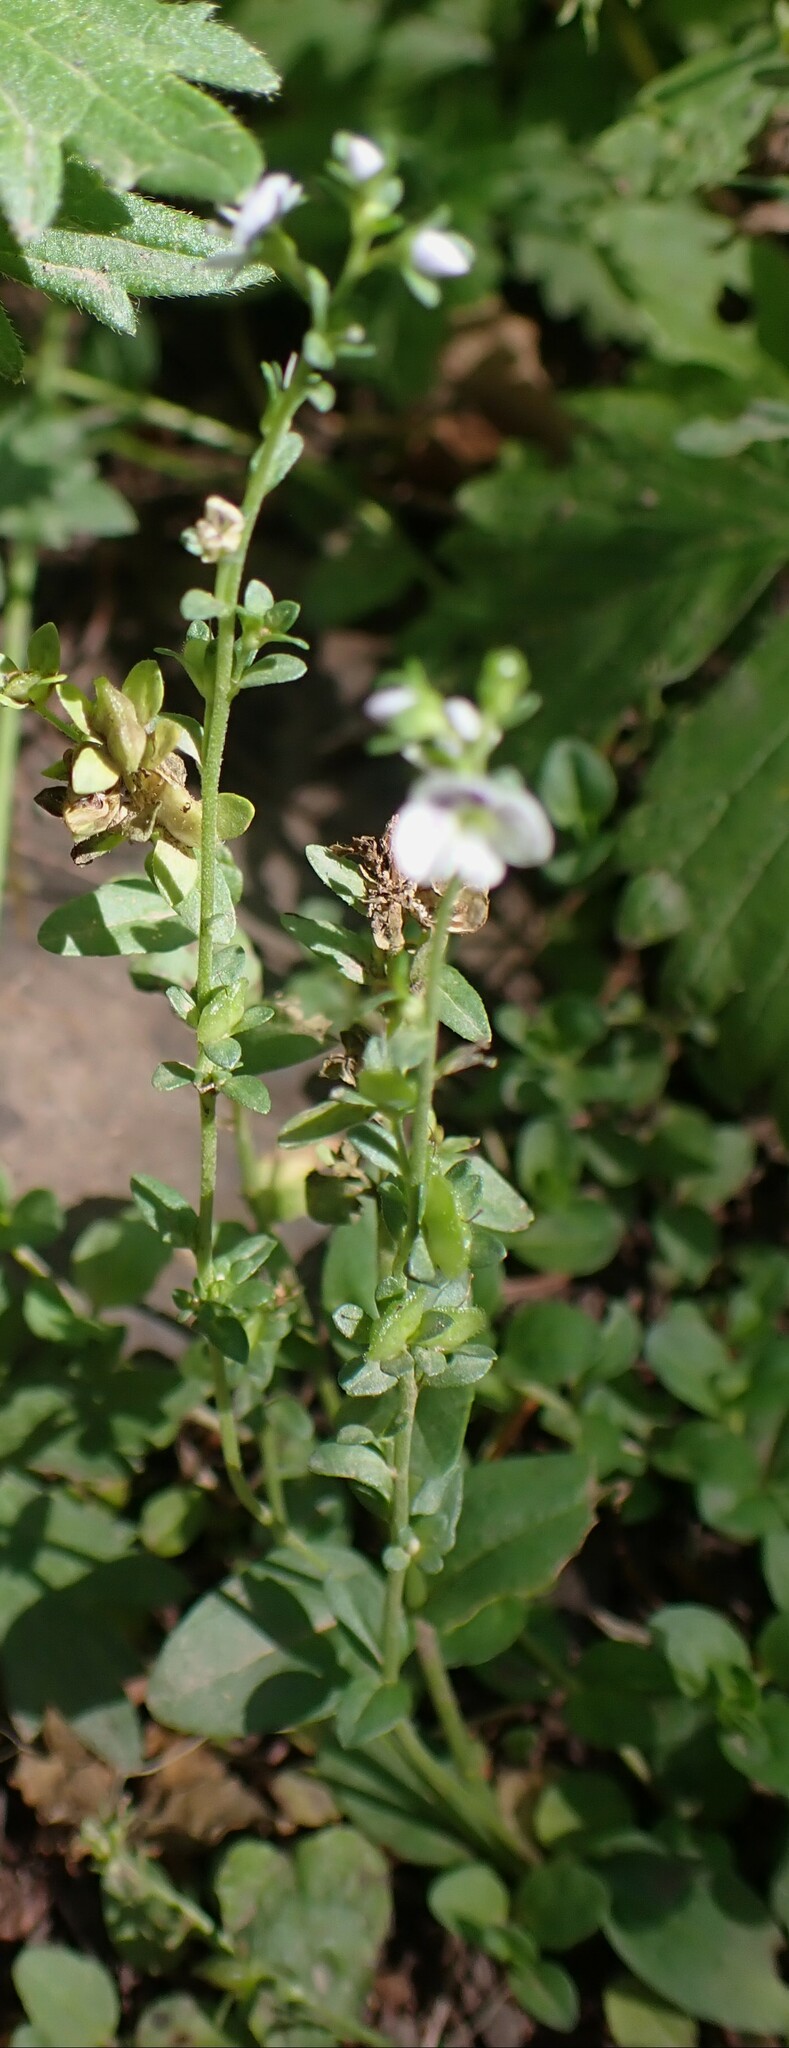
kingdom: Plantae
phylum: Tracheophyta
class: Magnoliopsida
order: Lamiales
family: Plantaginaceae
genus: Veronica
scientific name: Veronica serpyllifolia
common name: Thyme-leaved speedwell
